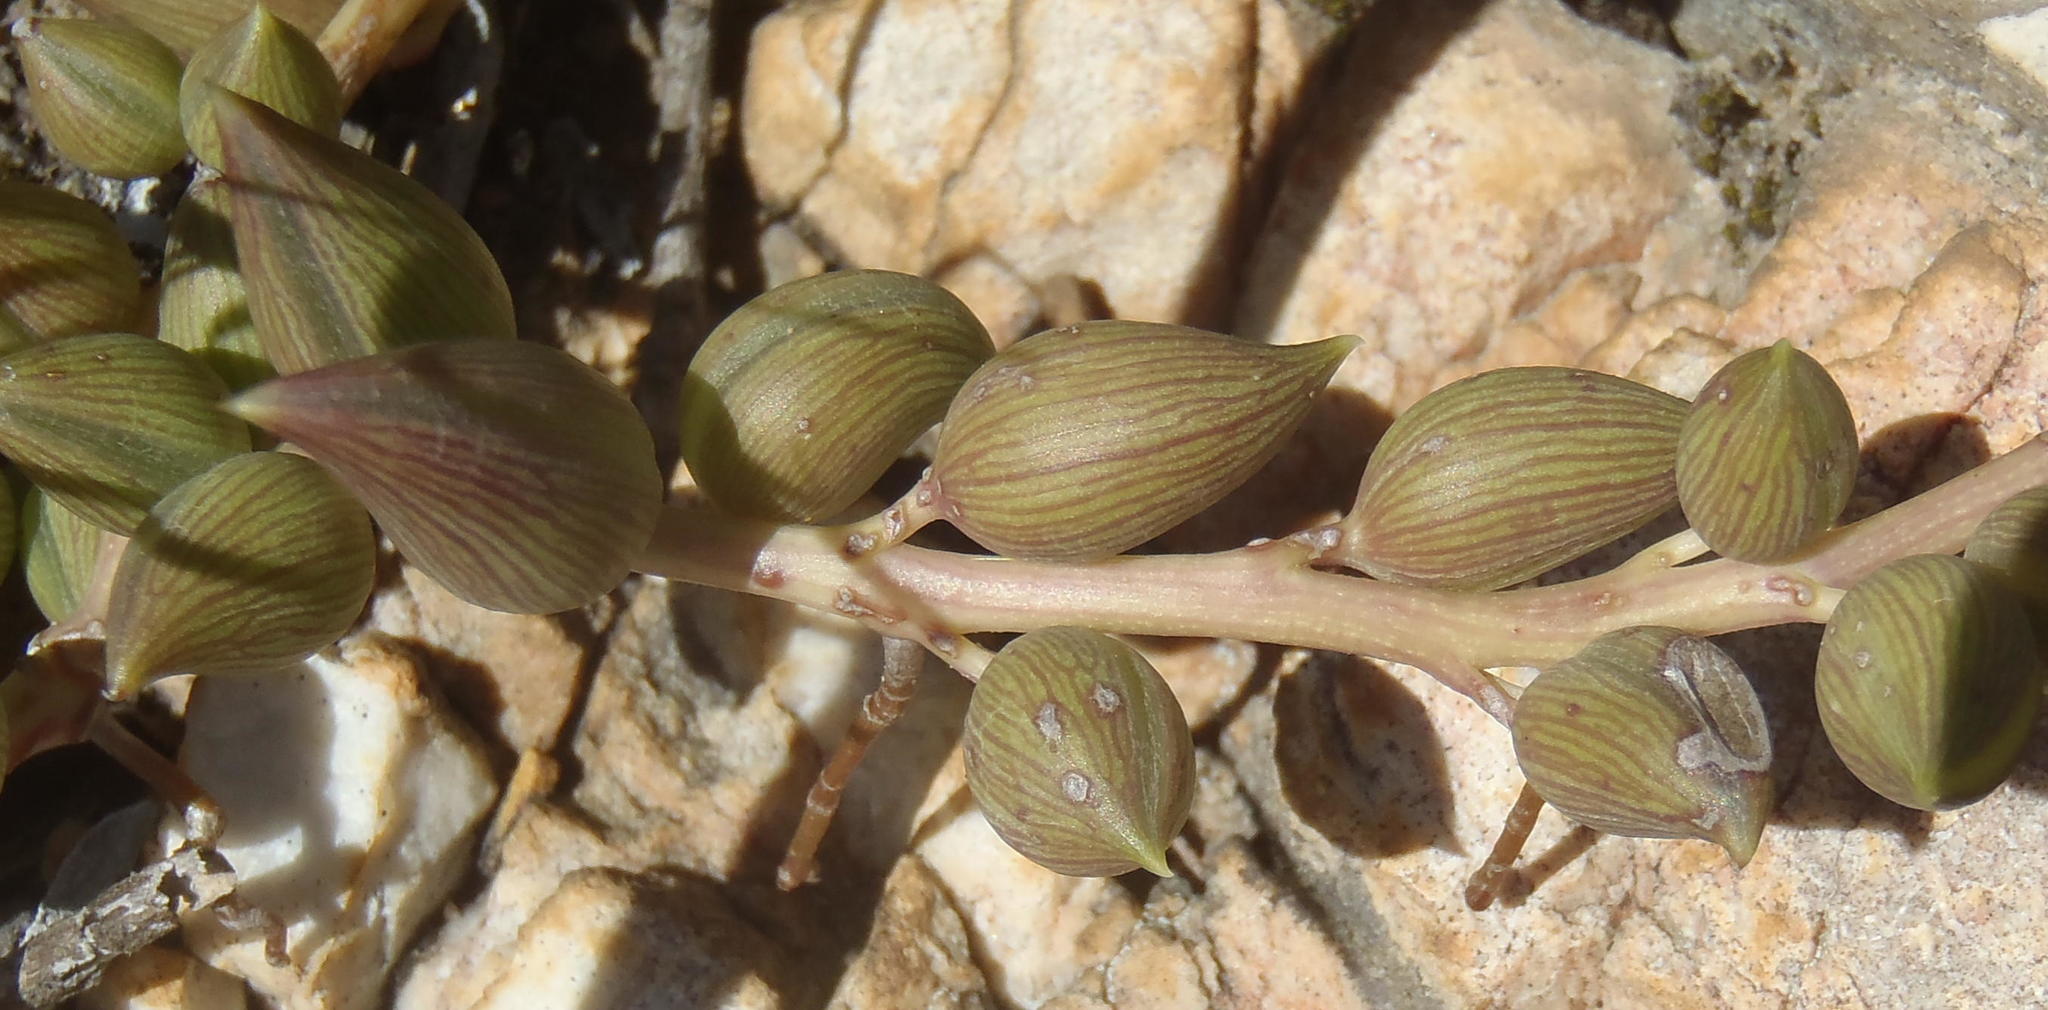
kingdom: Plantae
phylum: Tracheophyta
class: Magnoliopsida
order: Asterales
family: Asteraceae
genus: Curio
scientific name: Curio radicans
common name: Creeping-berry
